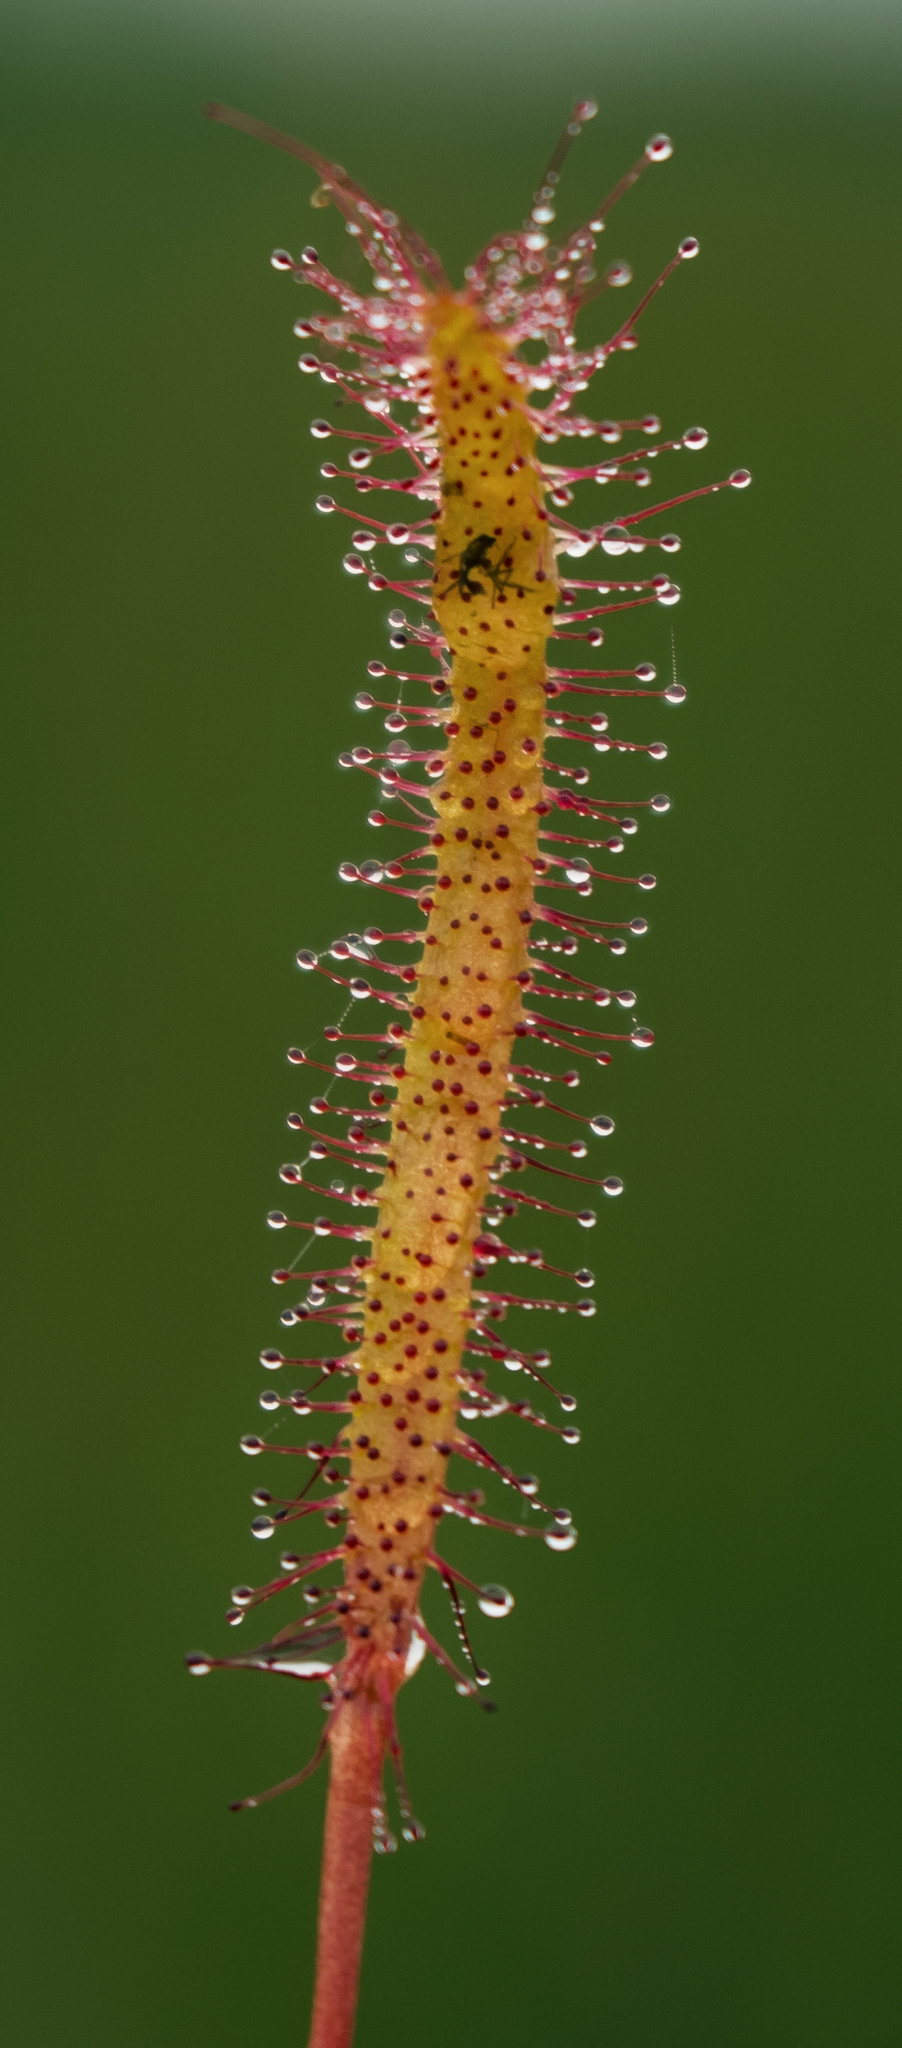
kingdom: Plantae
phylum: Tracheophyta
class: Magnoliopsida
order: Caryophyllales
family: Droseraceae
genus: Drosera
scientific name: Drosera linearis
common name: Linear-leaved sundew
